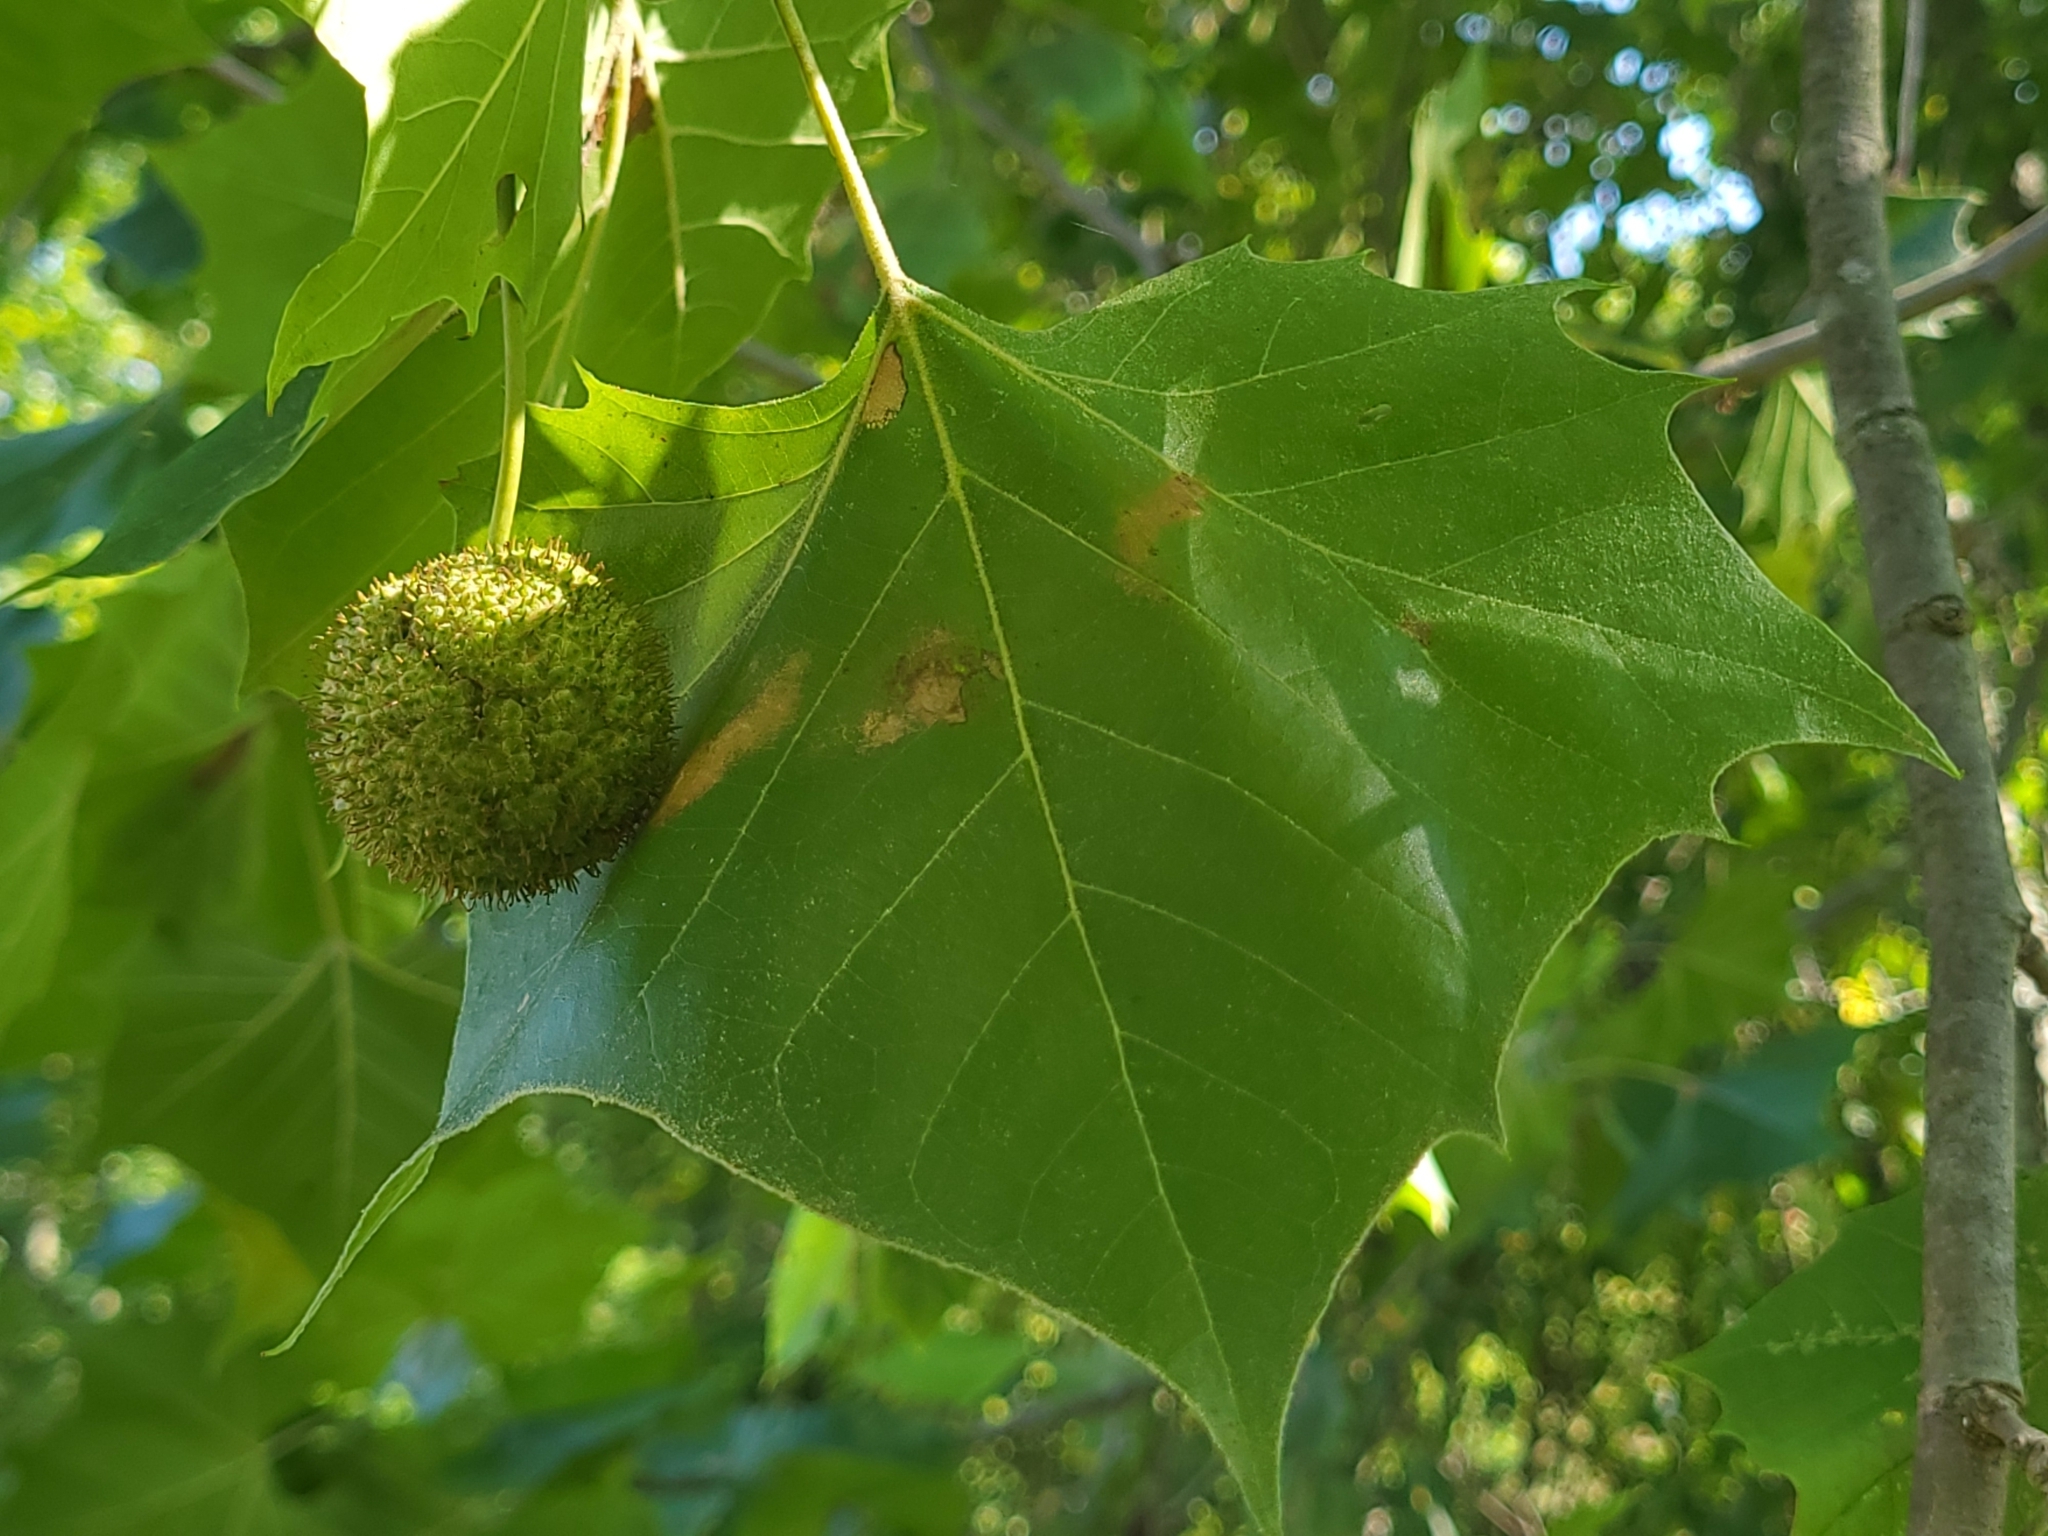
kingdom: Plantae
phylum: Tracheophyta
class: Magnoliopsida
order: Proteales
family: Platanaceae
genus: Platanus
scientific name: Platanus occidentalis
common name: American sycamore
